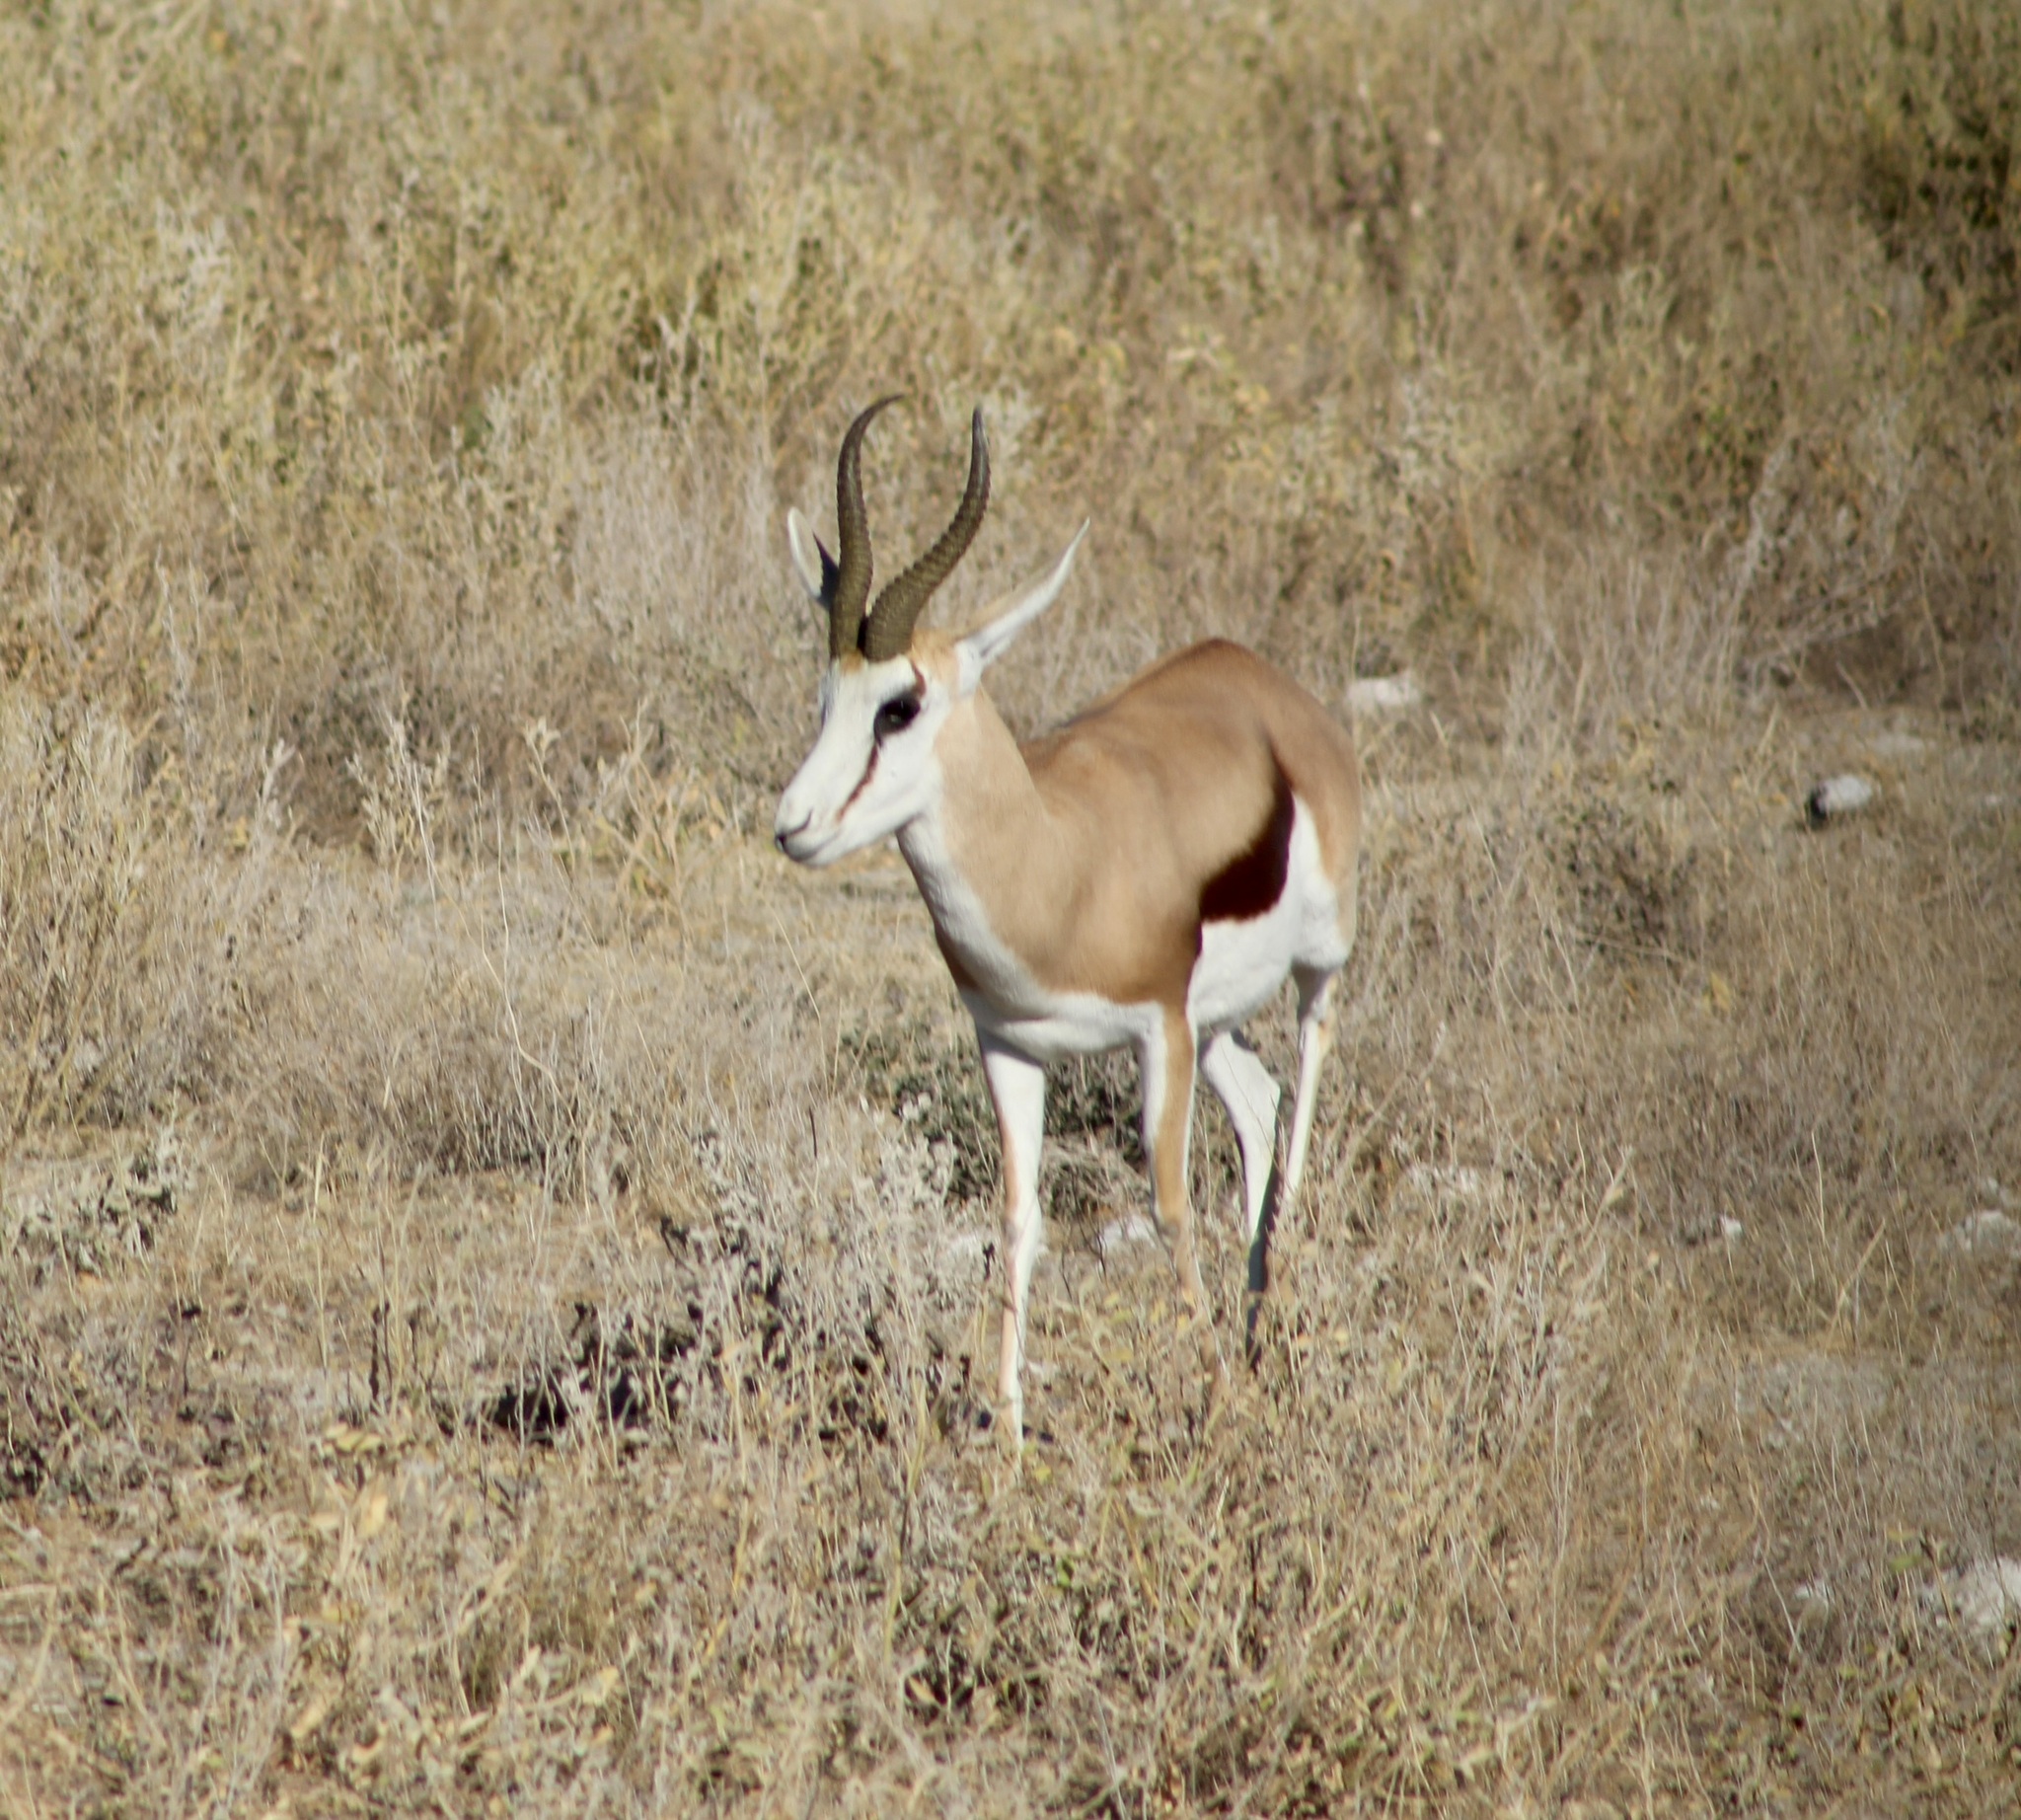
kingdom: Animalia
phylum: Chordata
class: Mammalia
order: Artiodactyla
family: Bovidae
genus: Antidorcas
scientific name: Antidorcas marsupialis
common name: Springbok
